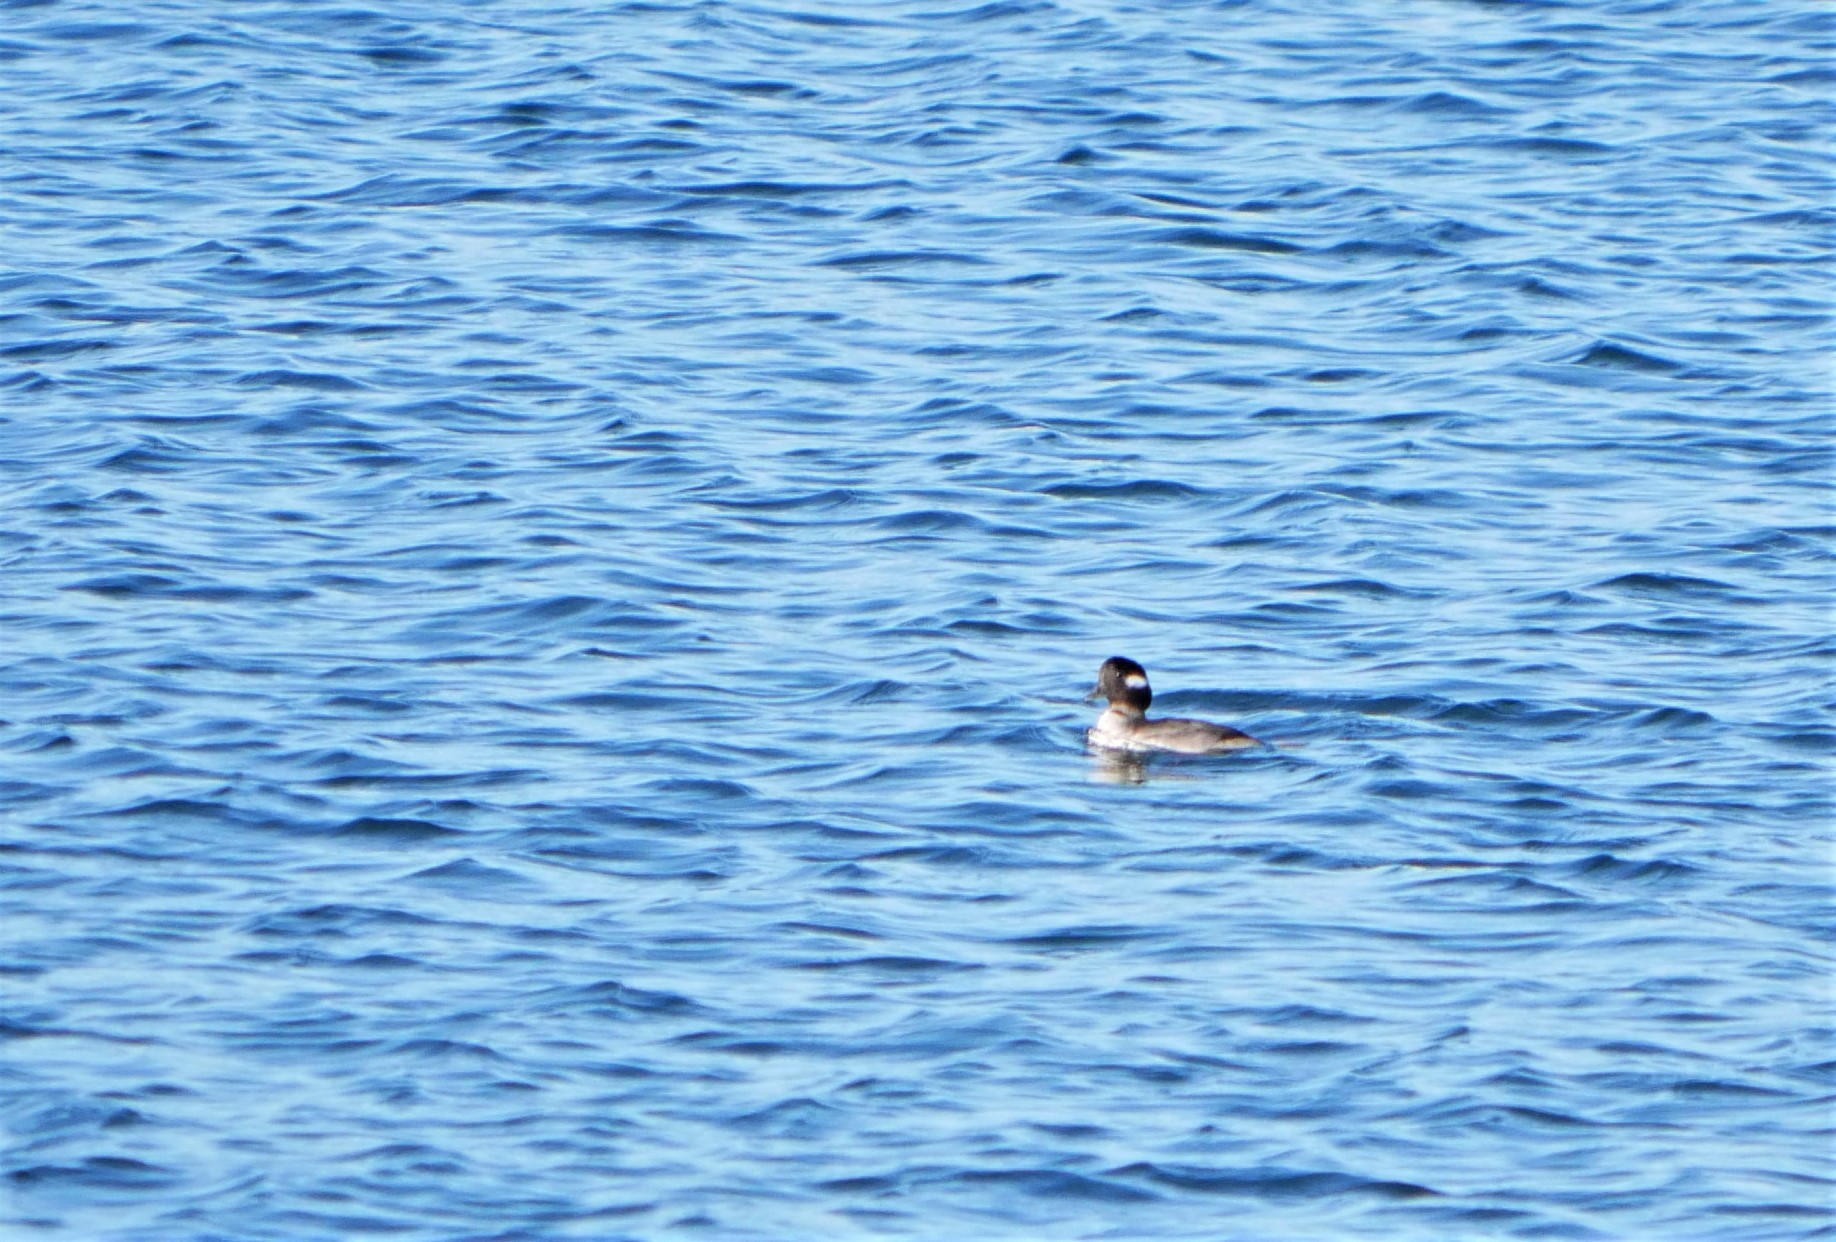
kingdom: Animalia
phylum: Chordata
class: Aves
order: Anseriformes
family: Anatidae
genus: Bucephala
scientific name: Bucephala albeola
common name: Bufflehead
